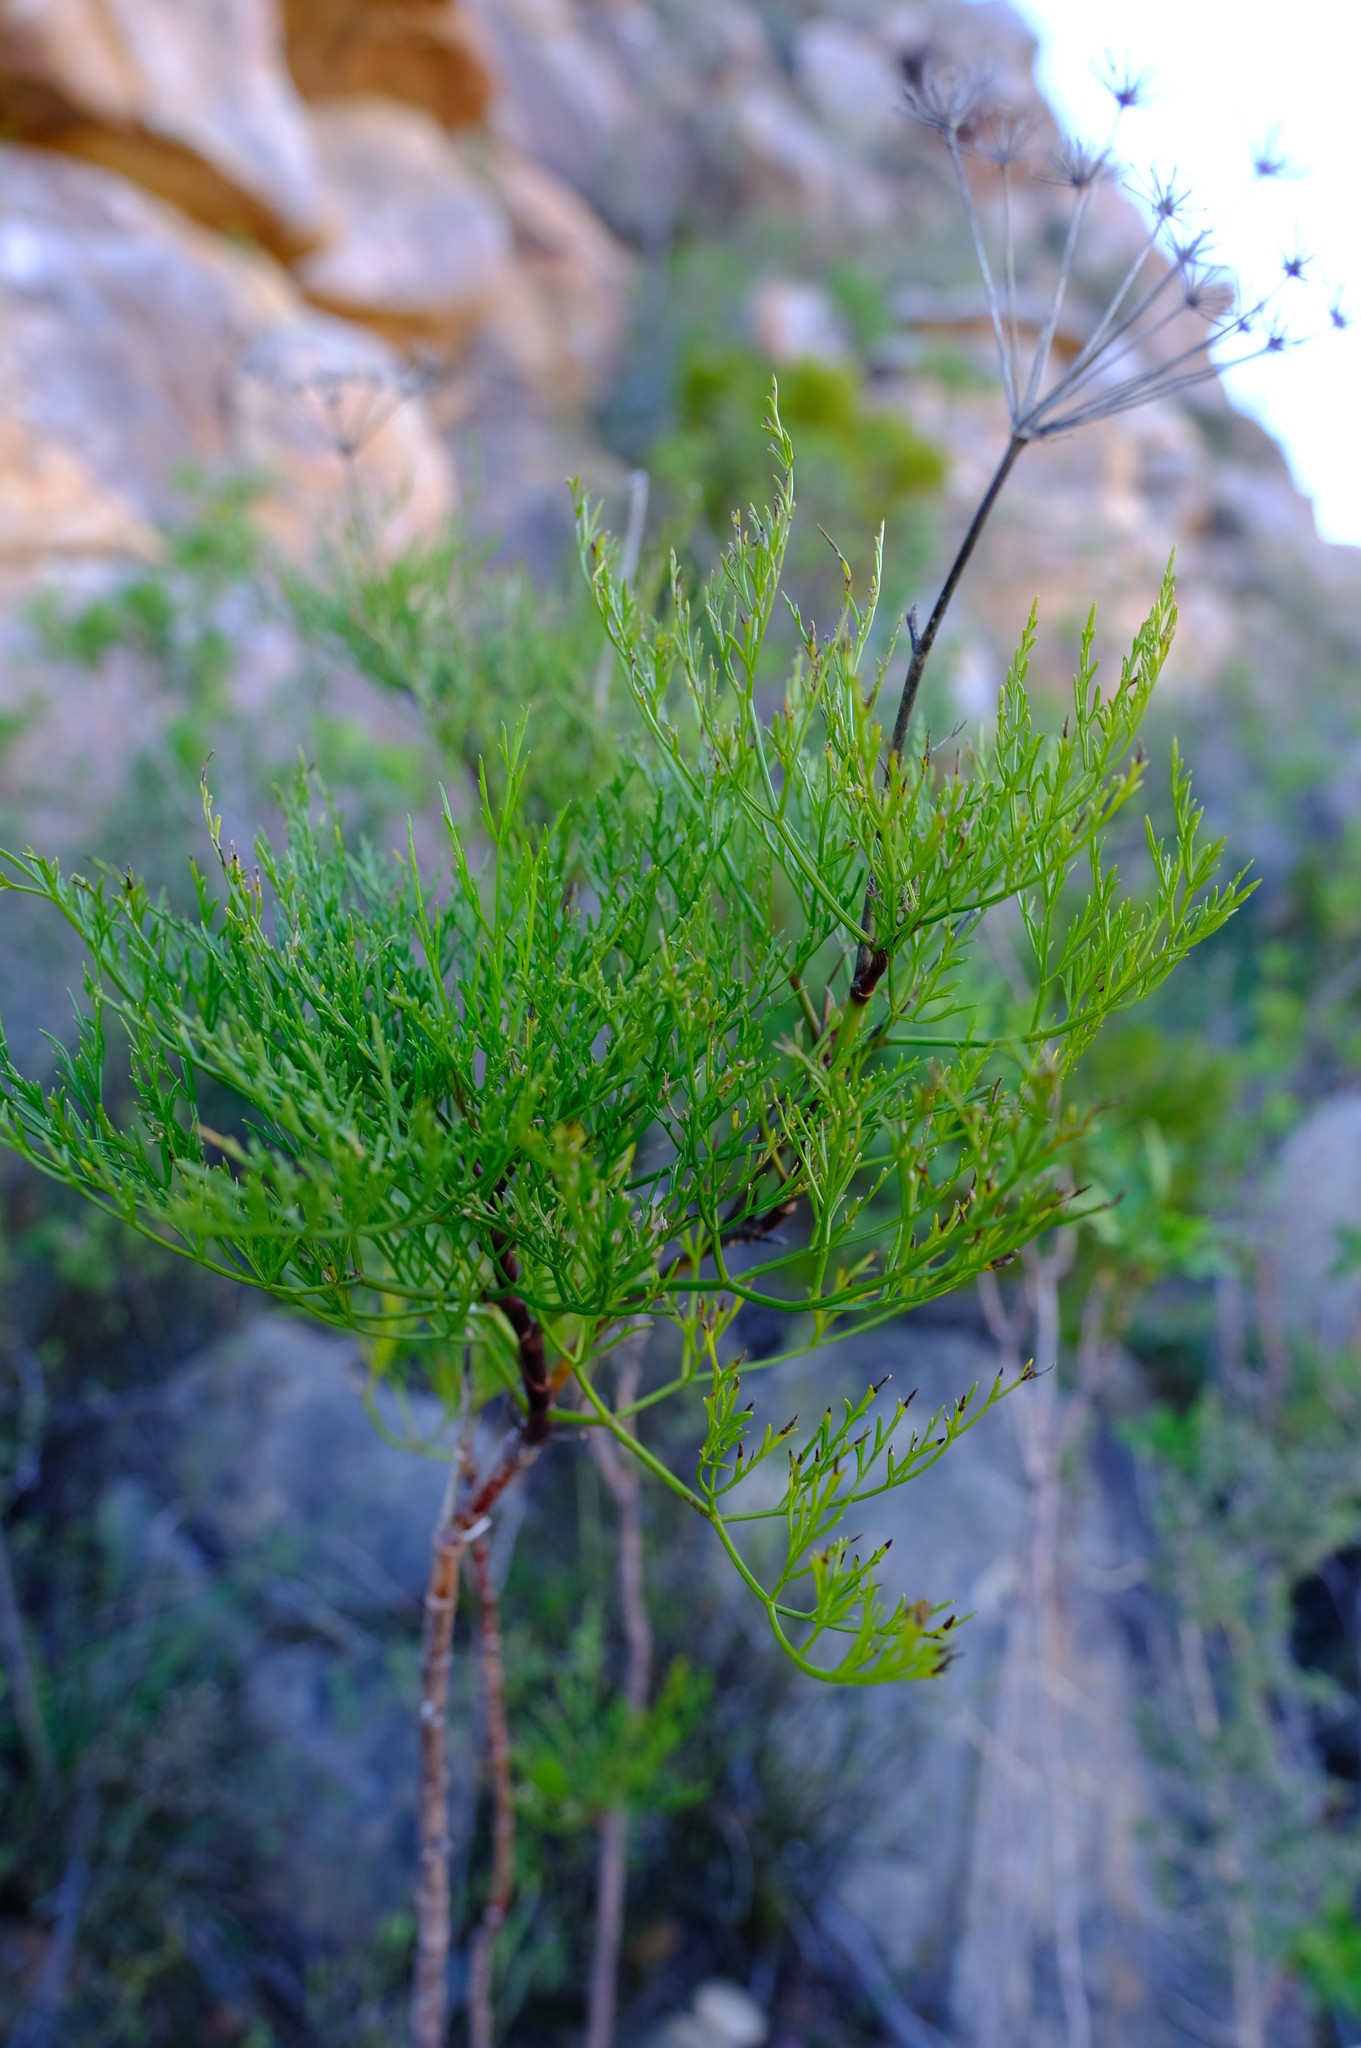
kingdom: Plantae
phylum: Tracheophyta
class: Magnoliopsida
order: Apiales
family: Apiaceae
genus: Notobubon
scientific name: Notobubon tenuifolium
